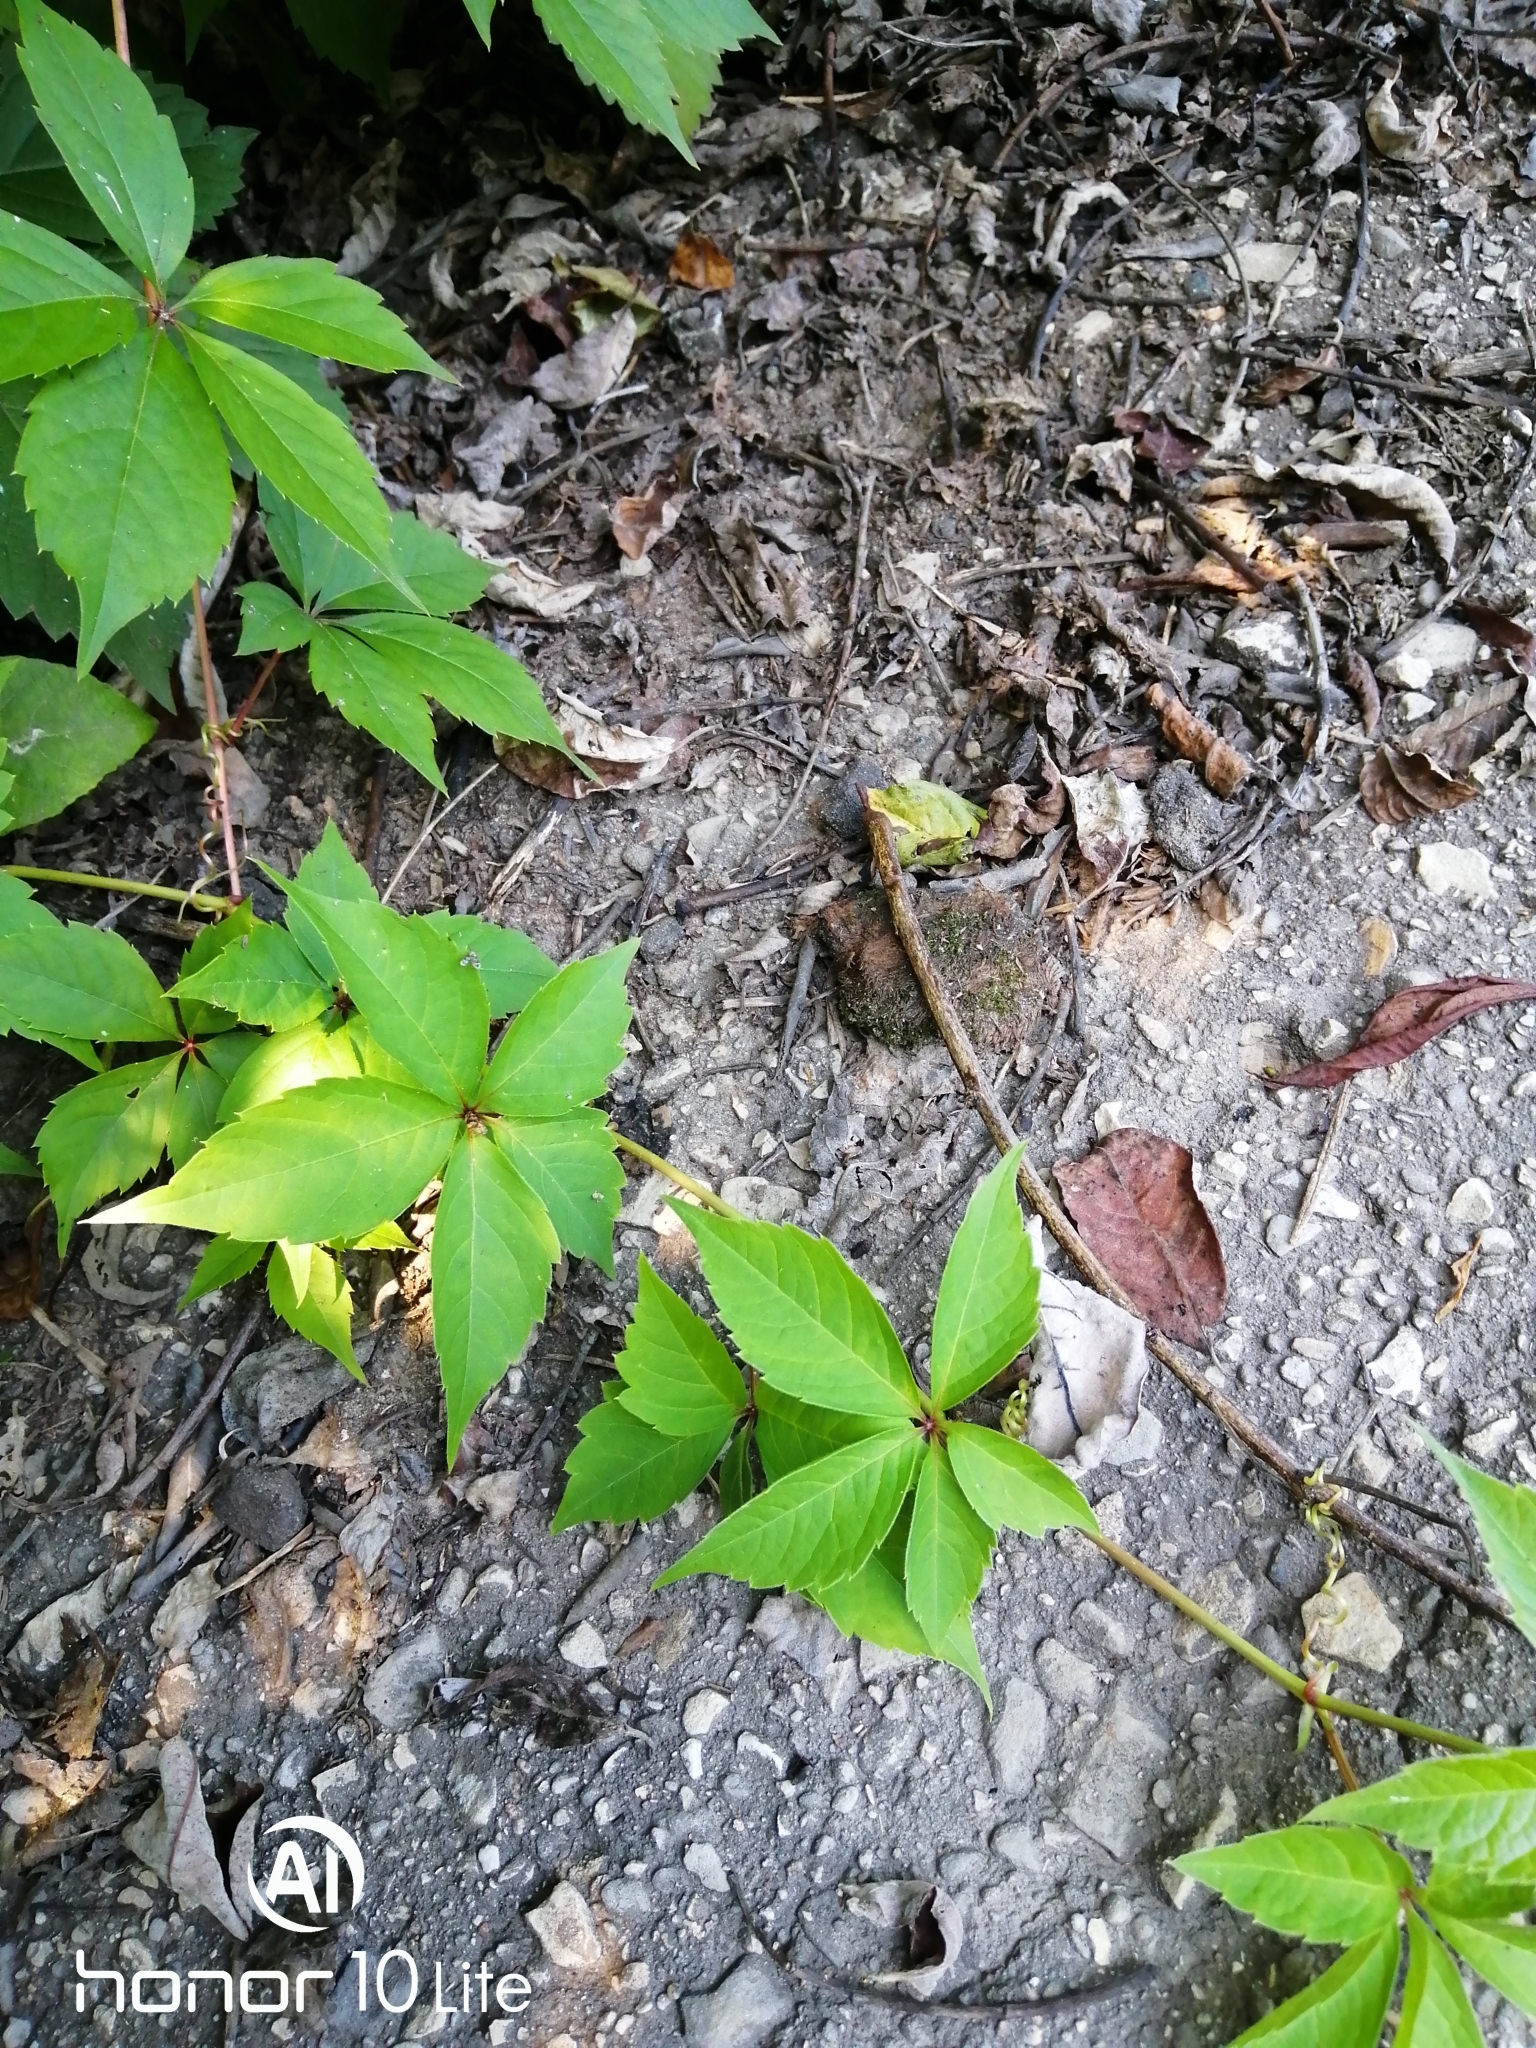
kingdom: Plantae
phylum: Tracheophyta
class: Magnoliopsida
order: Vitales
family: Vitaceae
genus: Parthenocissus
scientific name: Parthenocissus inserta
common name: False virginia-creeper
